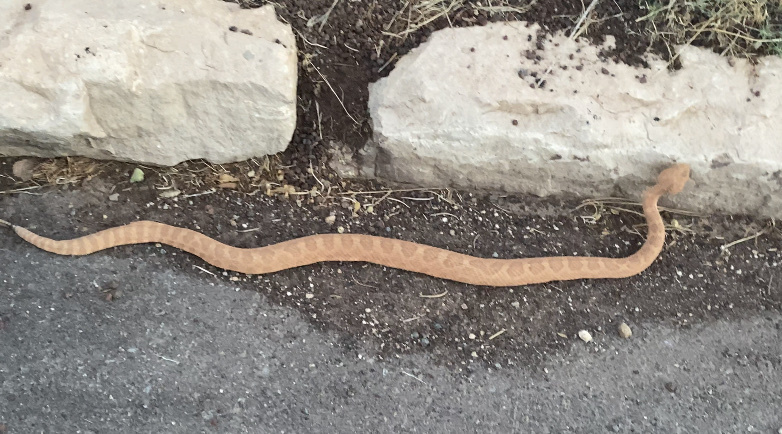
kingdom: Animalia
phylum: Chordata
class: Squamata
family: Viperidae
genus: Crotalus
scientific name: Crotalus oreganus
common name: Abyssus
